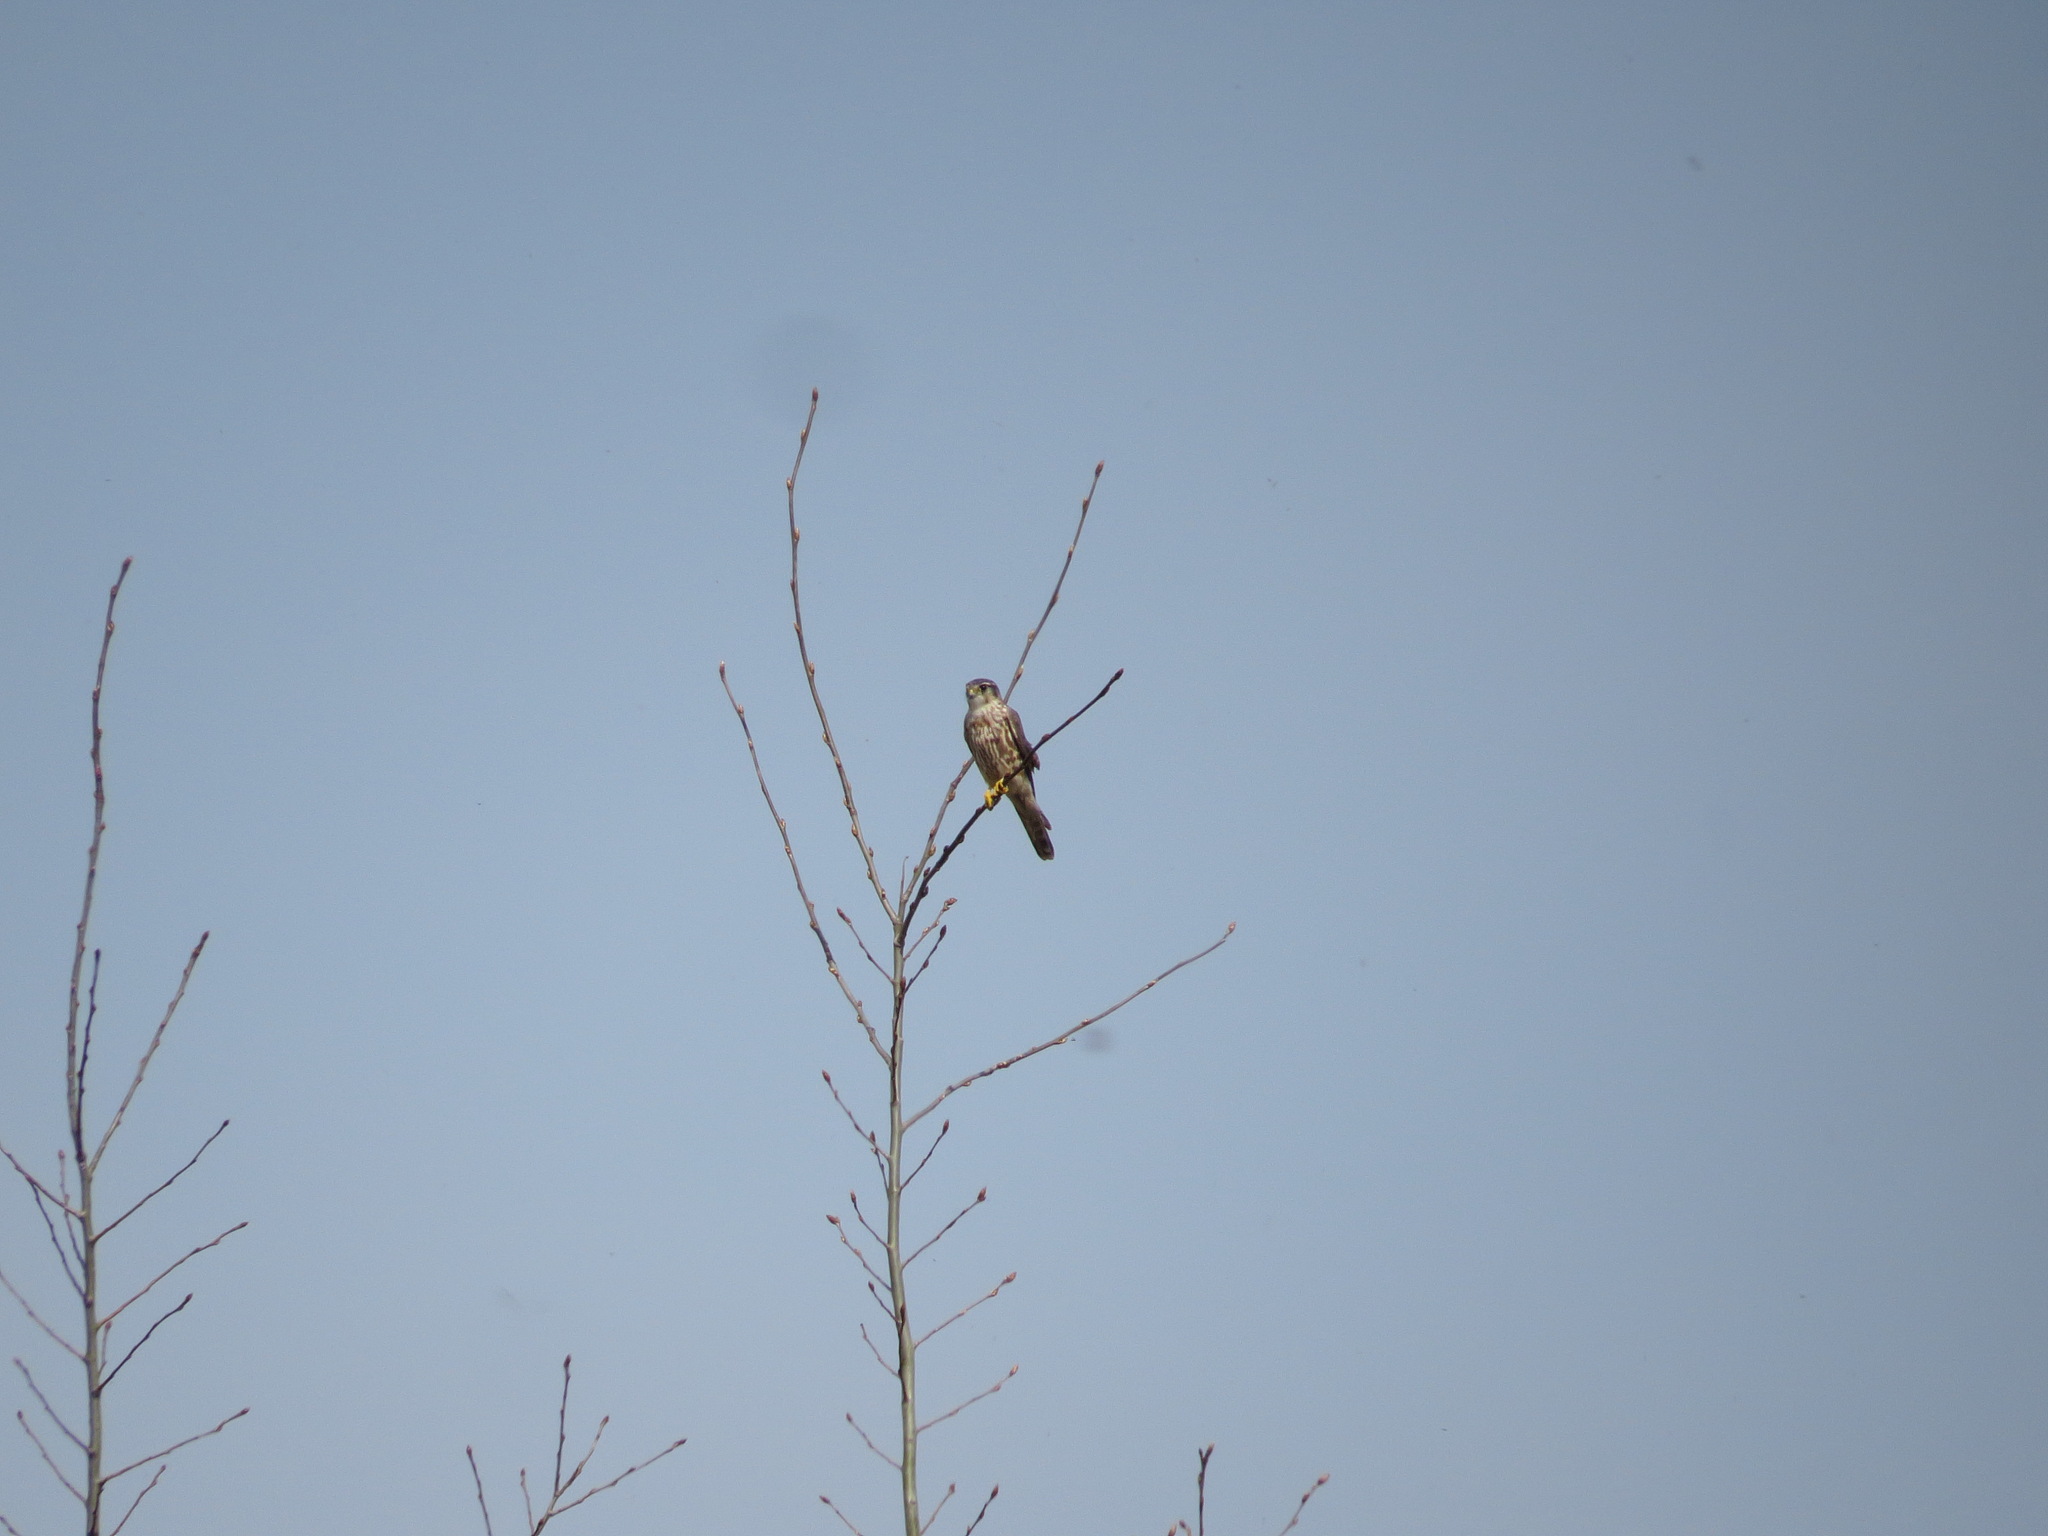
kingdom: Animalia
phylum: Chordata
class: Aves
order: Falconiformes
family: Falconidae
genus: Falco
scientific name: Falco columbarius
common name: Merlin
